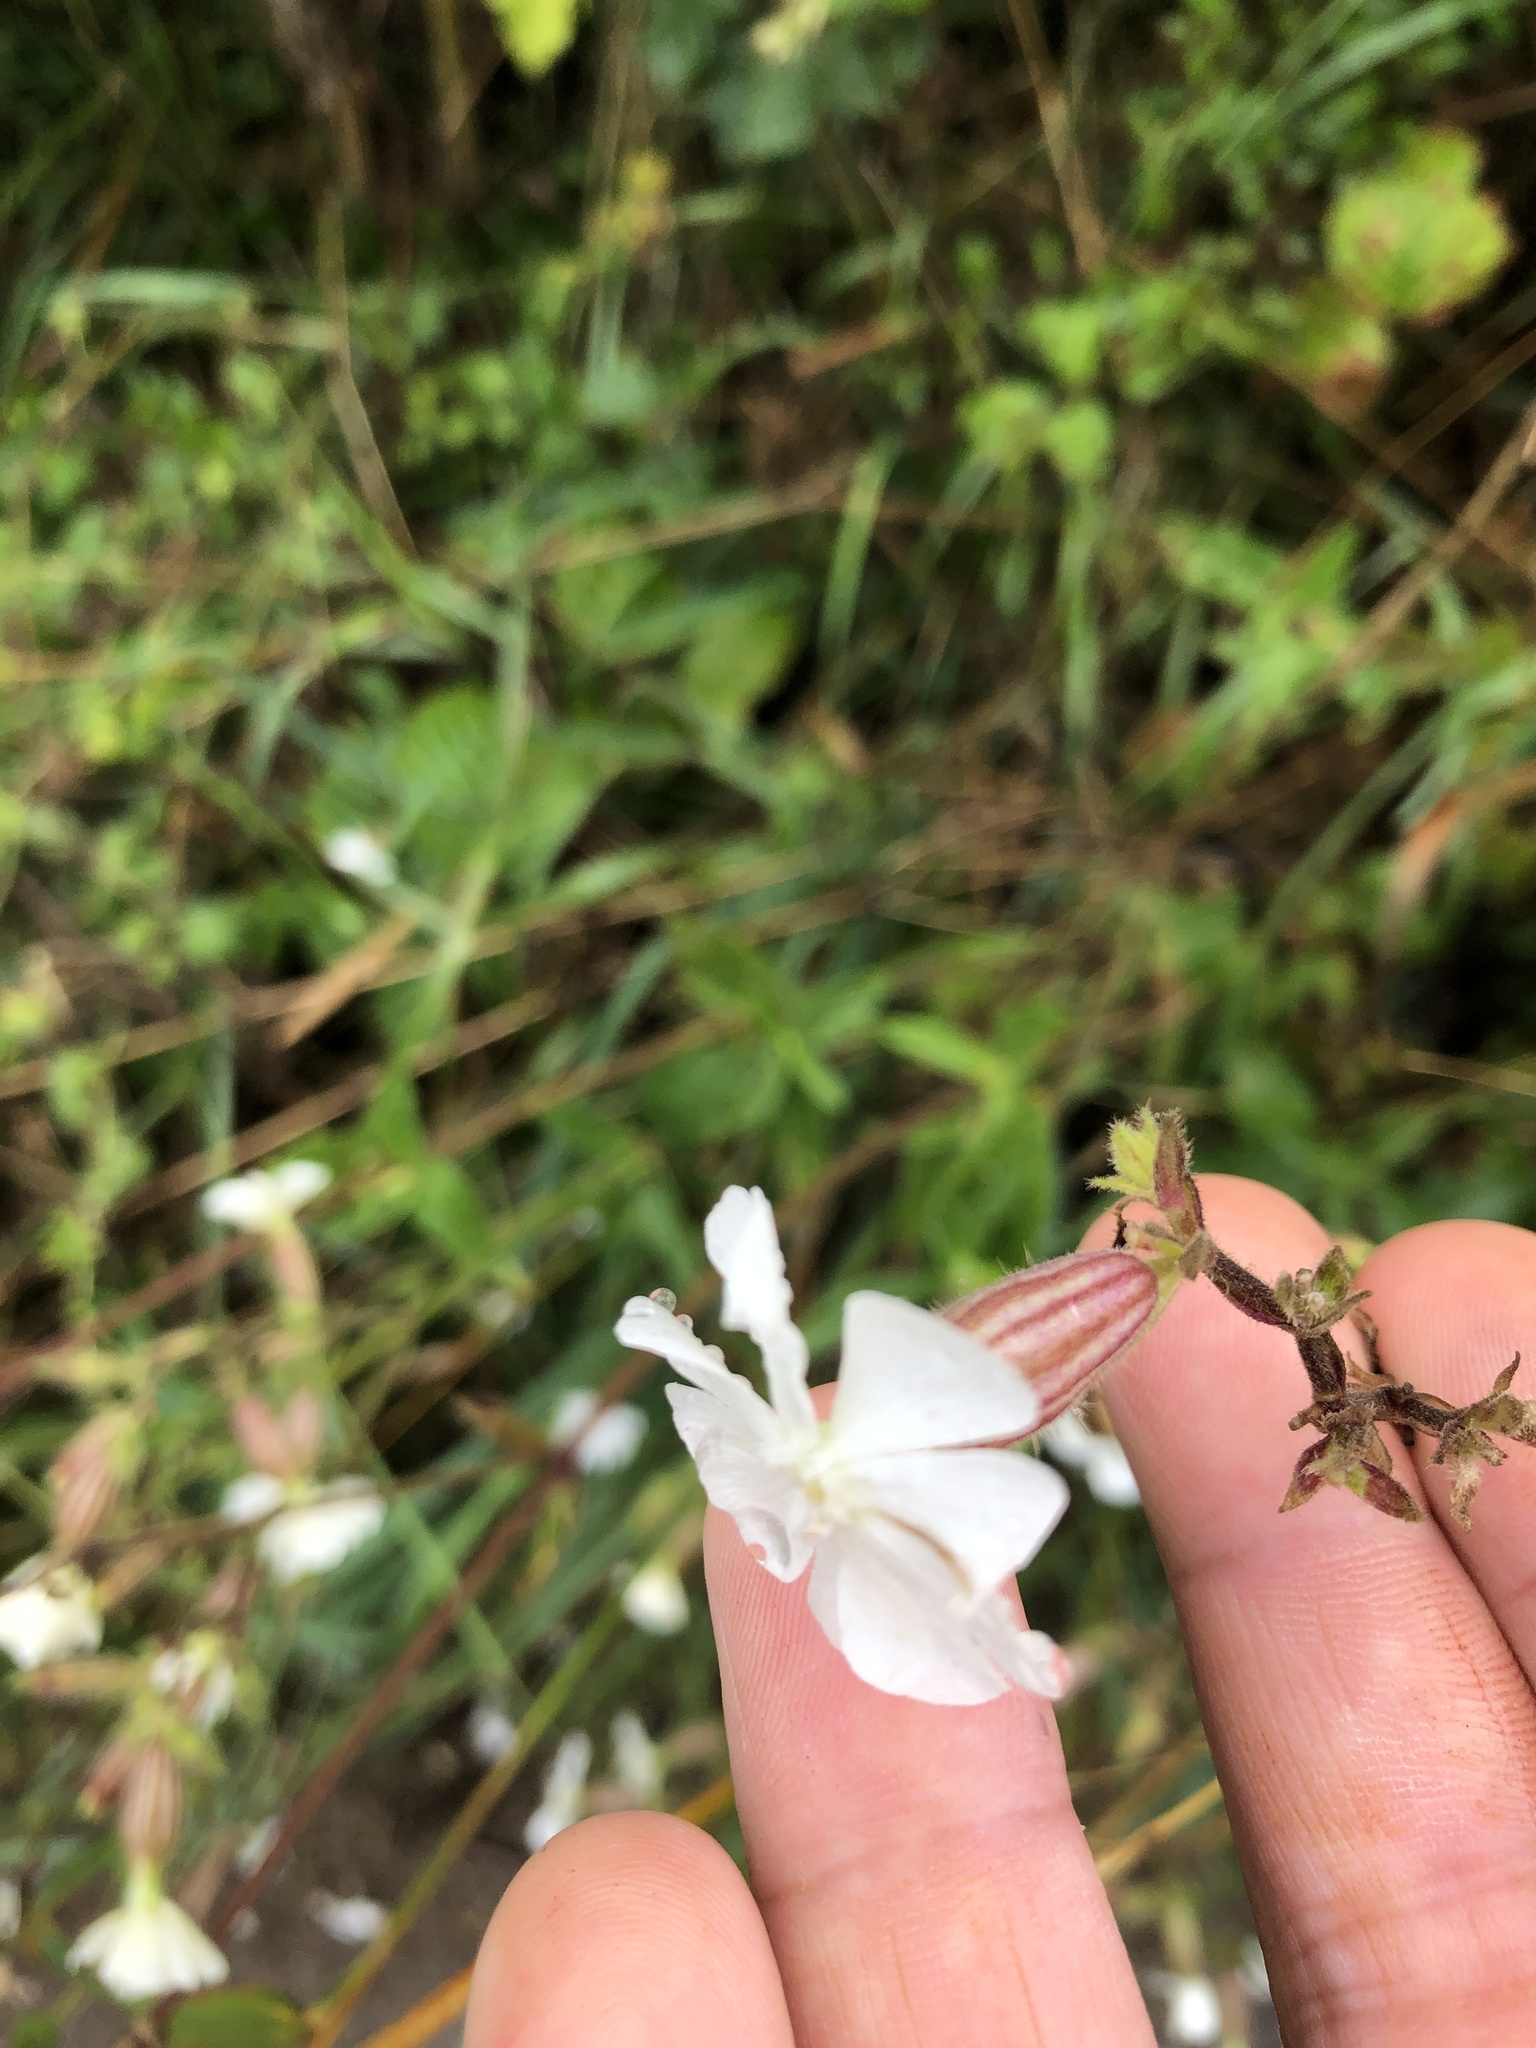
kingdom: Plantae
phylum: Tracheophyta
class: Magnoliopsida
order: Caryophyllales
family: Caryophyllaceae
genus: Silene
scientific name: Silene latifolia
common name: White campion
